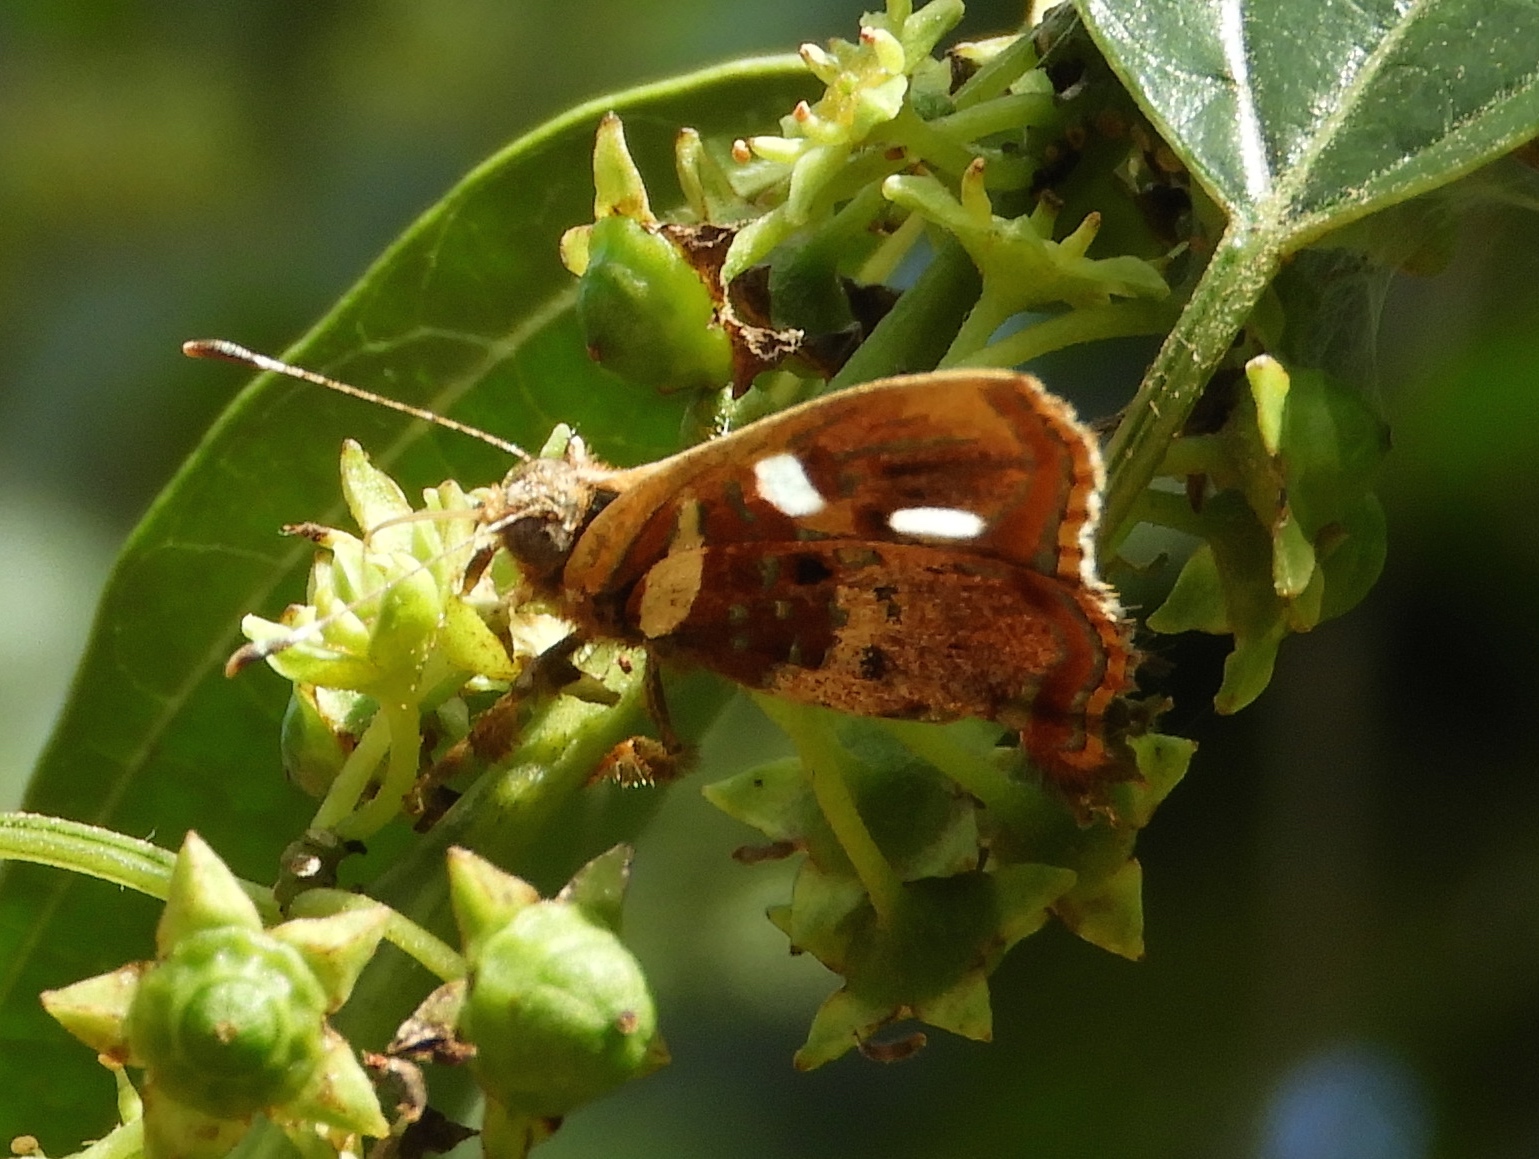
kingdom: Animalia
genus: Anteros
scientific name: Anteros carausius
